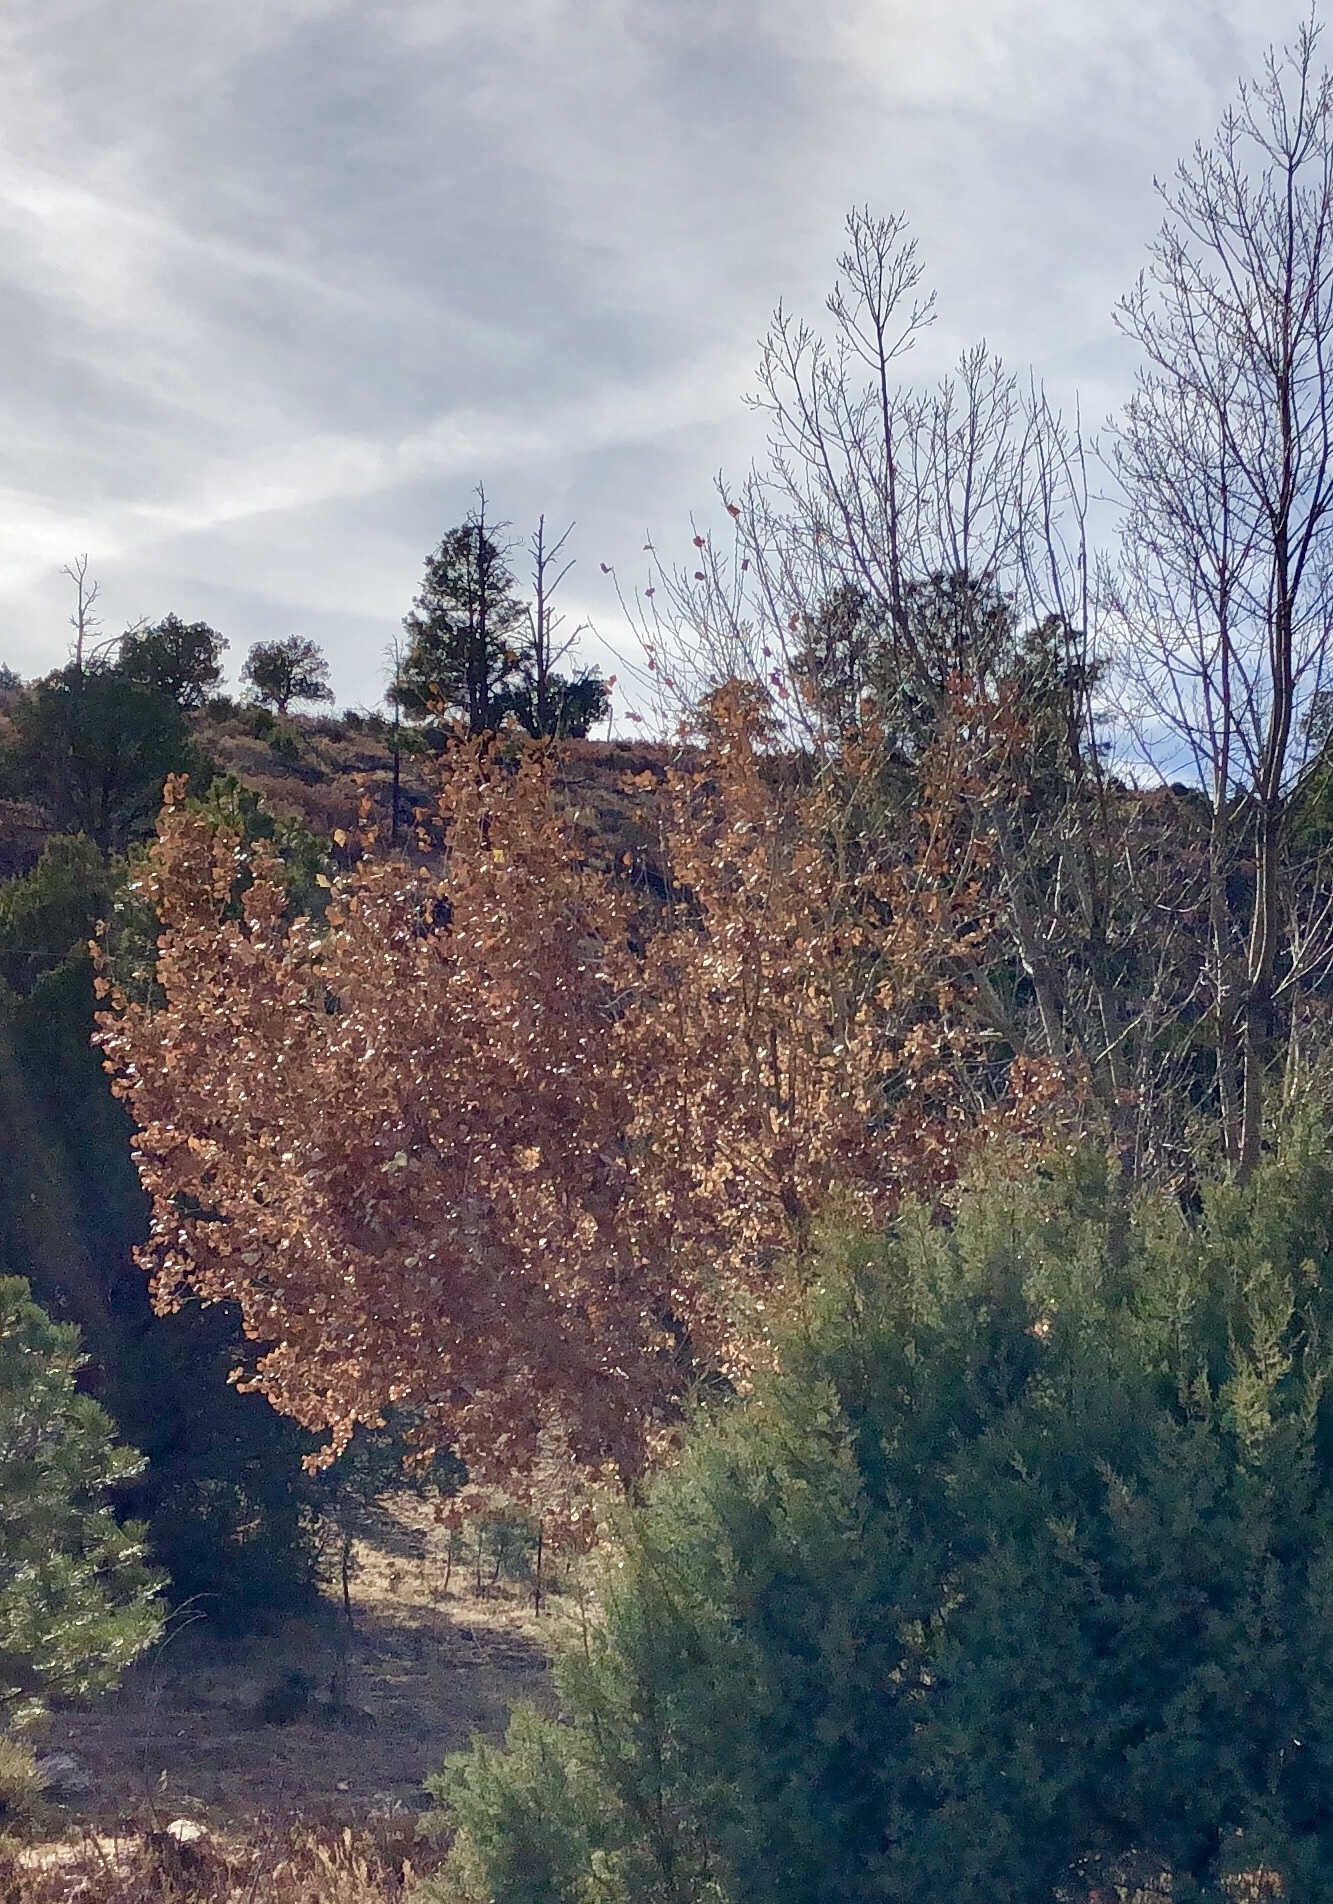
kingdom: Plantae
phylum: Tracheophyta
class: Magnoliopsida
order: Malpighiales
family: Salicaceae
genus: Populus
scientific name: Populus fremontii
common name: Fremont's cottonwood
